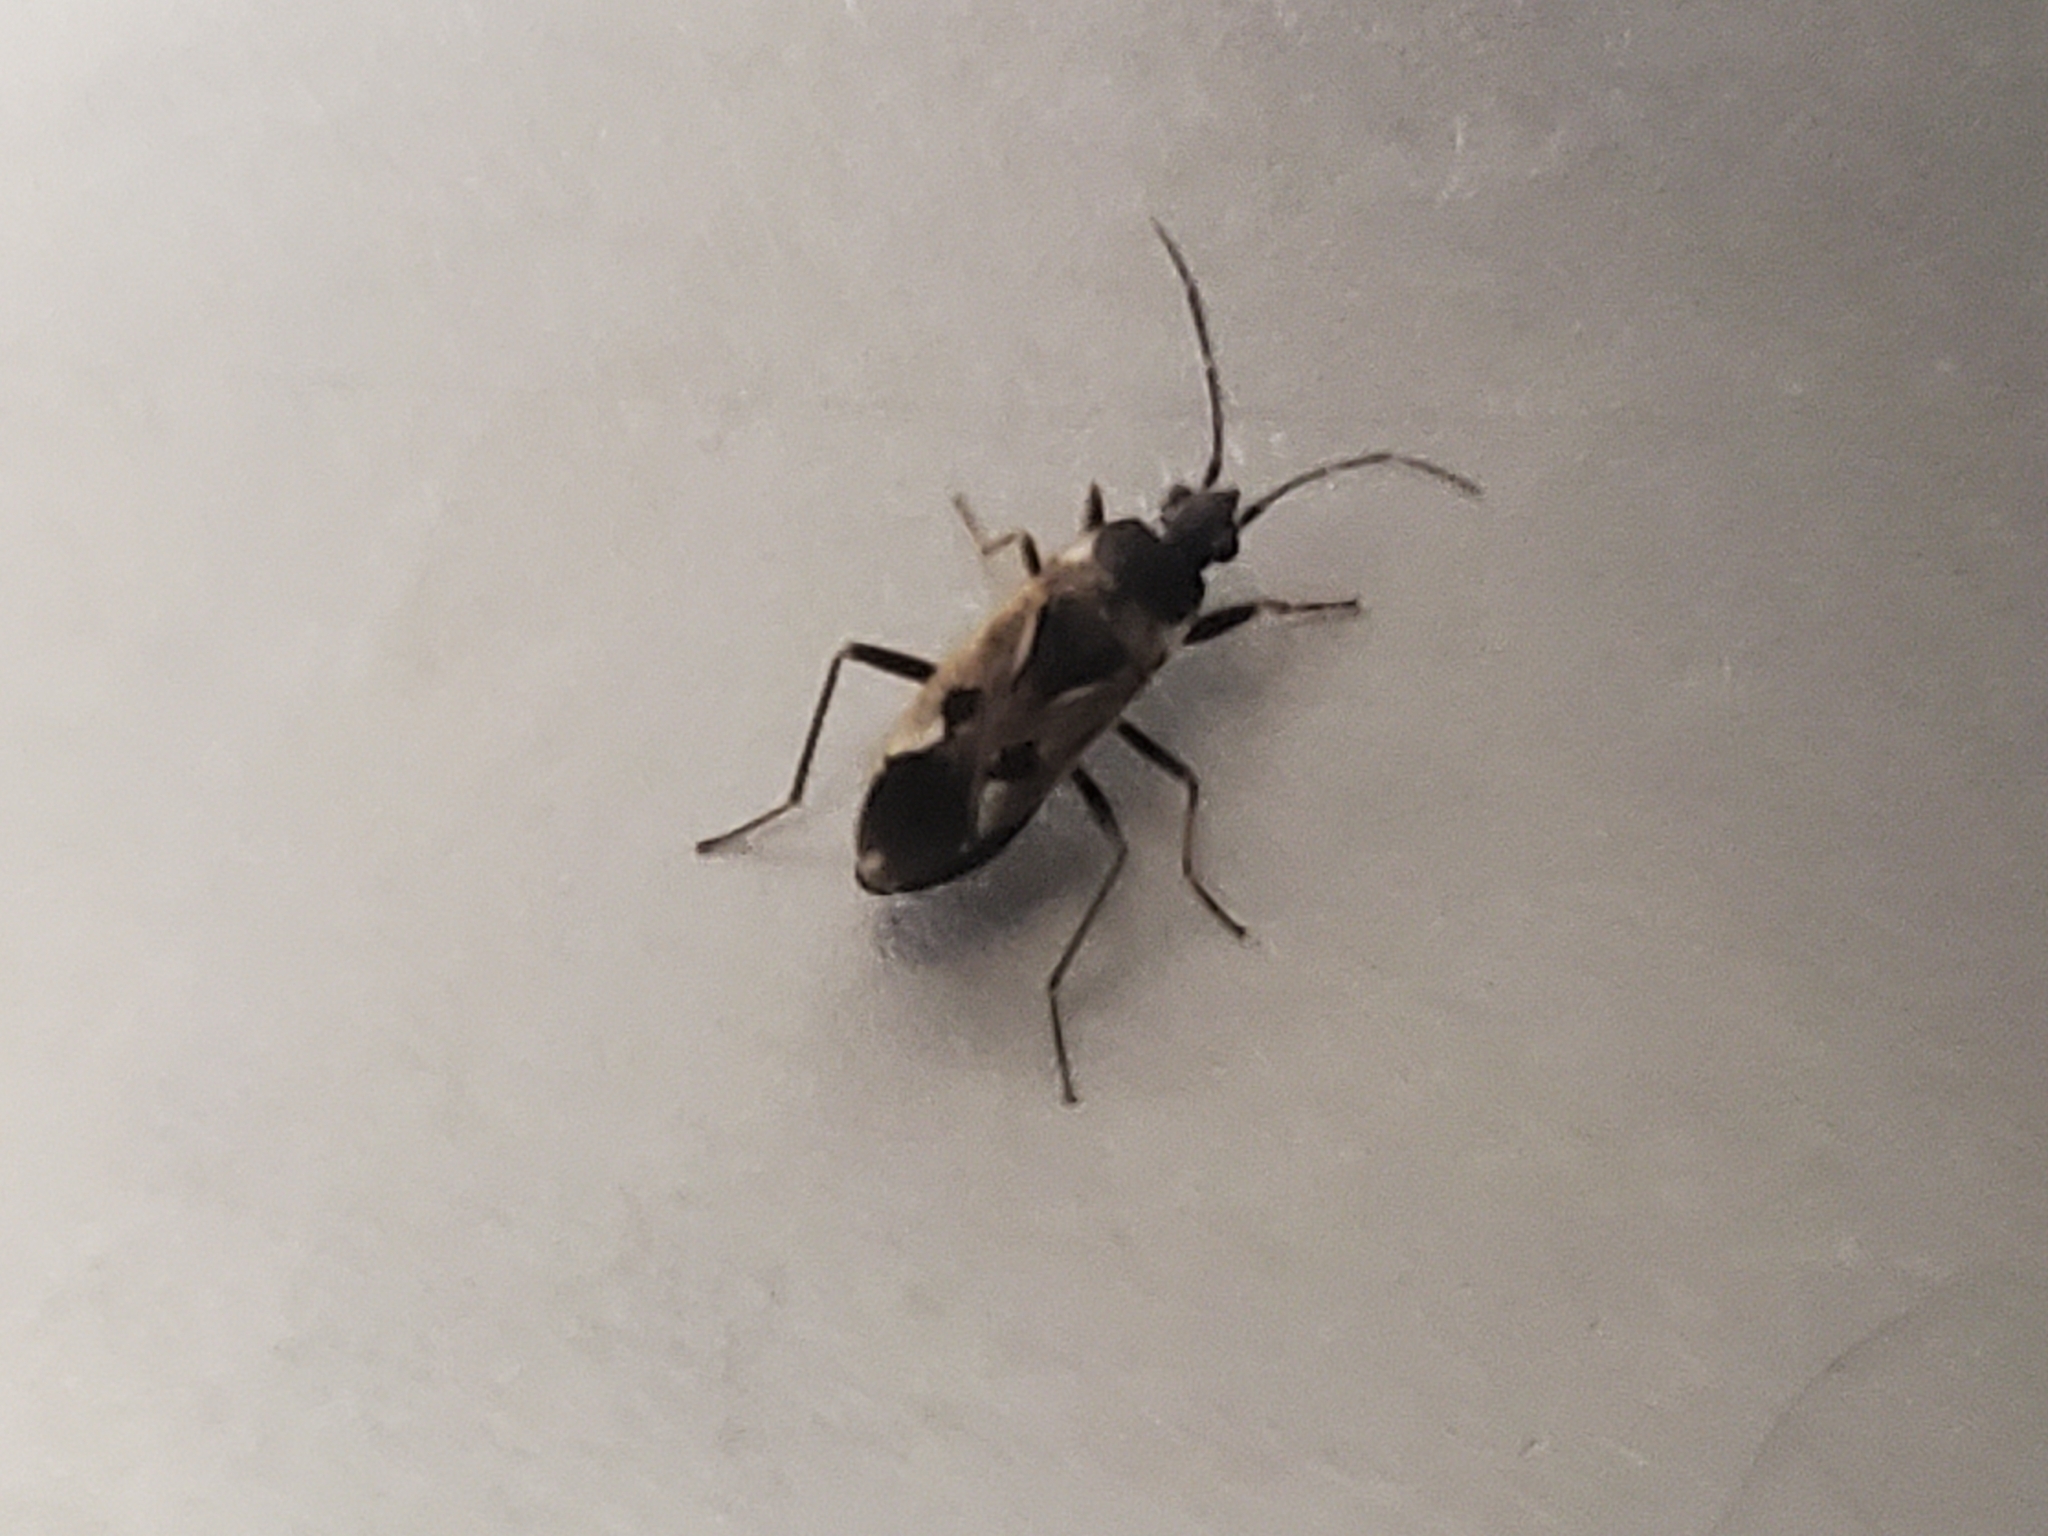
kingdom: Animalia
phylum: Arthropoda
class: Insecta
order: Hemiptera
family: Rhyparochromidae
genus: Rhyparochromus
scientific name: Rhyparochromus vulgaris
